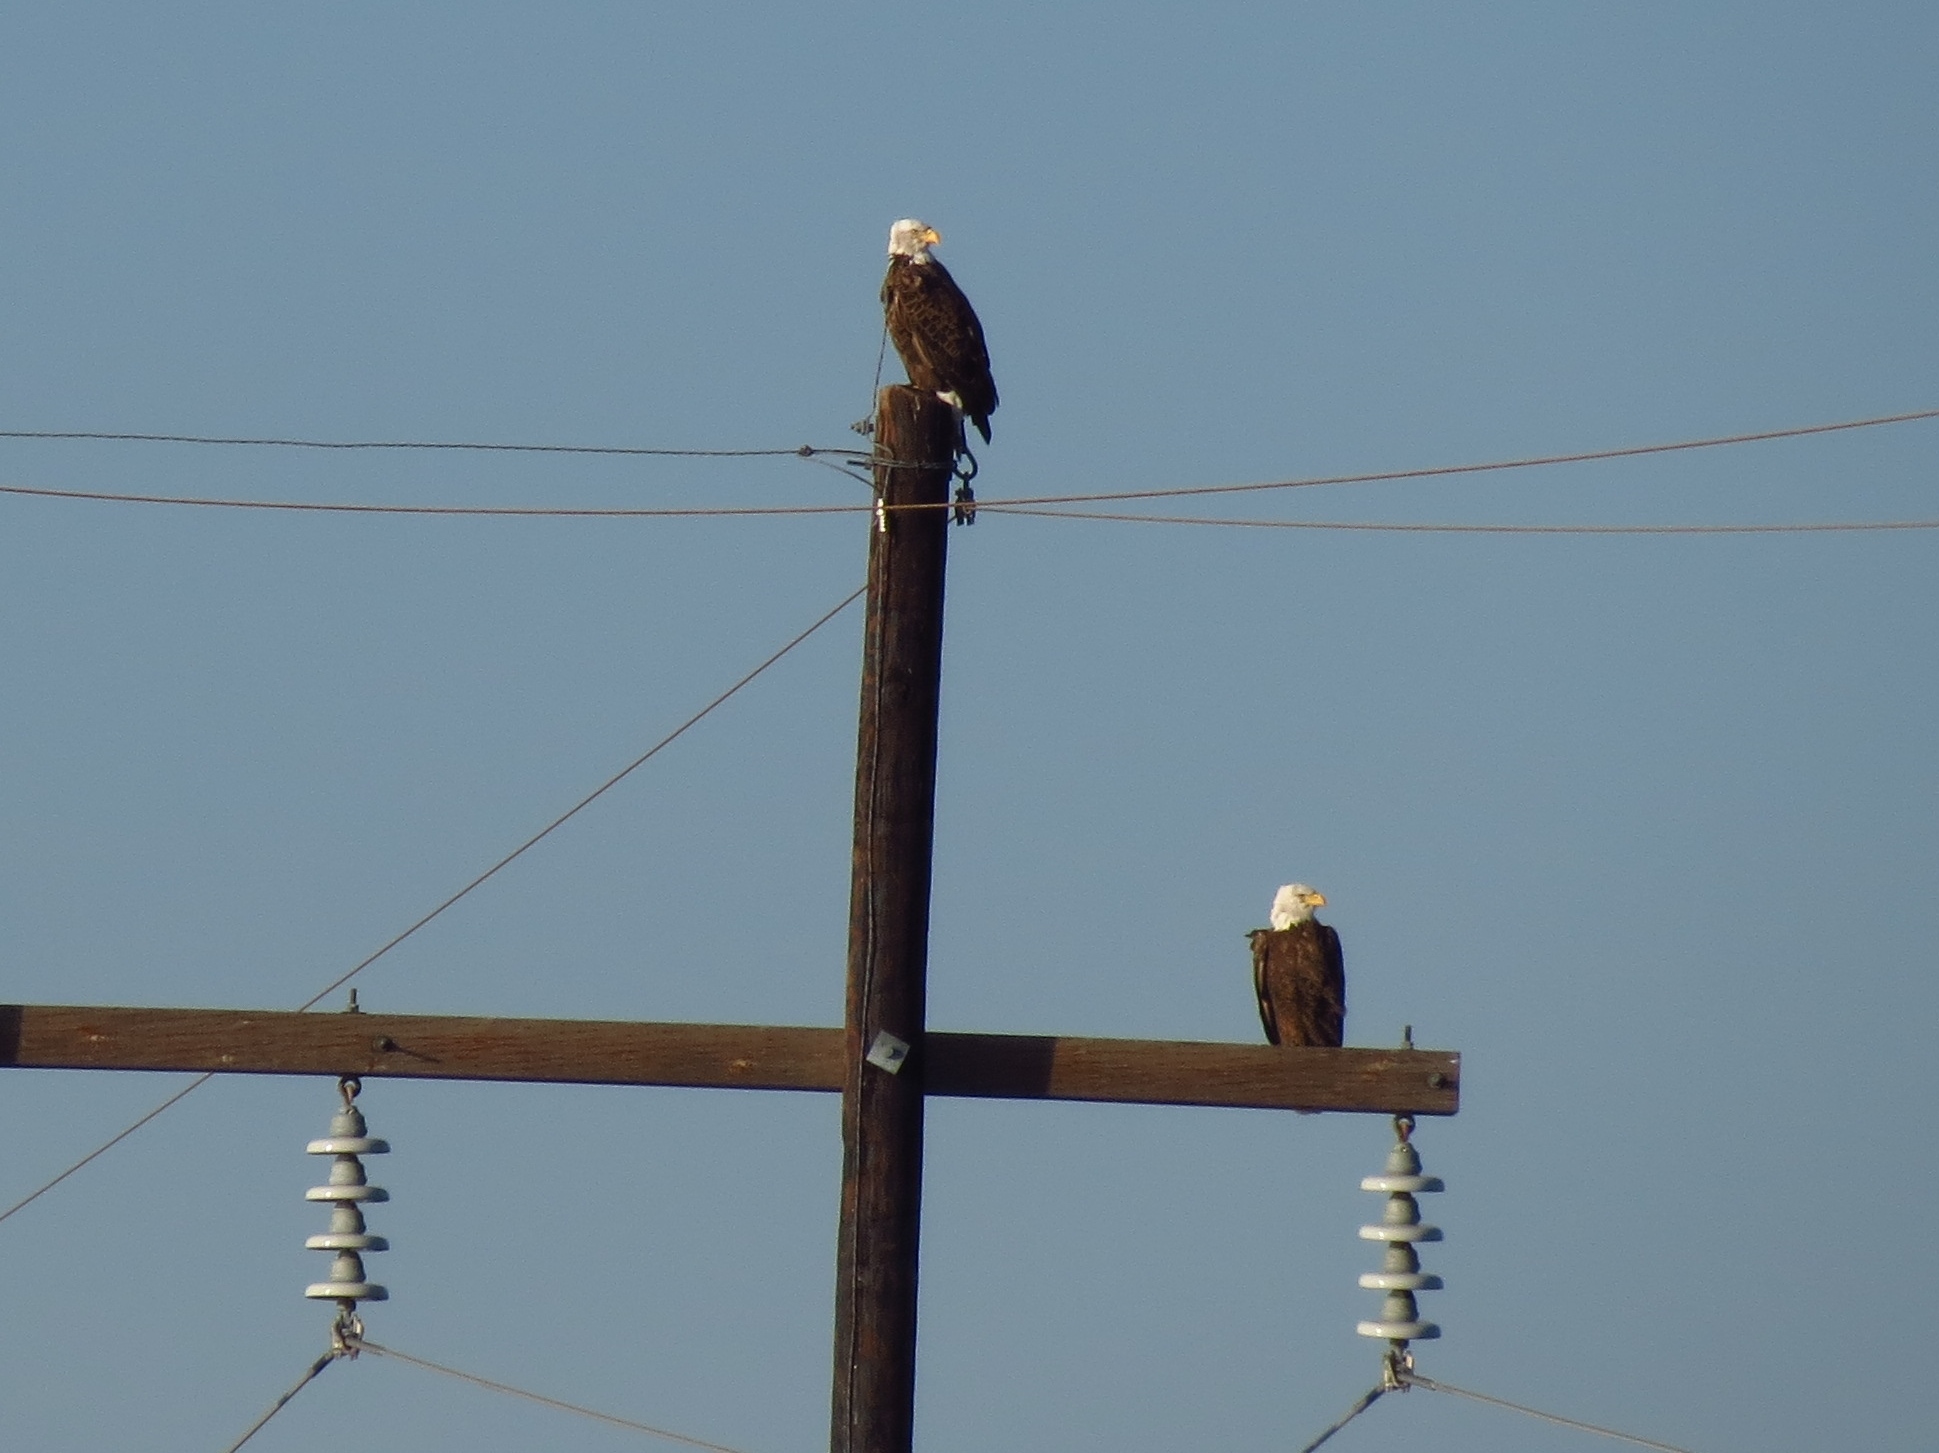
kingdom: Animalia
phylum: Chordata
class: Aves
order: Accipitriformes
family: Accipitridae
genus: Haliaeetus
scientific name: Haliaeetus leucocephalus
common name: Bald eagle
